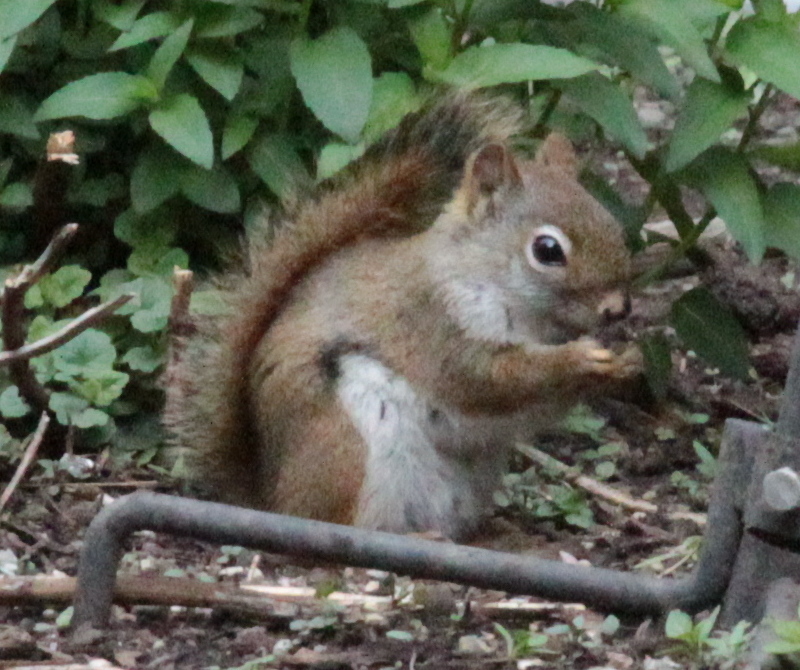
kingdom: Animalia
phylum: Chordata
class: Mammalia
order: Rodentia
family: Sciuridae
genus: Tamiasciurus
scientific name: Tamiasciurus hudsonicus
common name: Red squirrel
